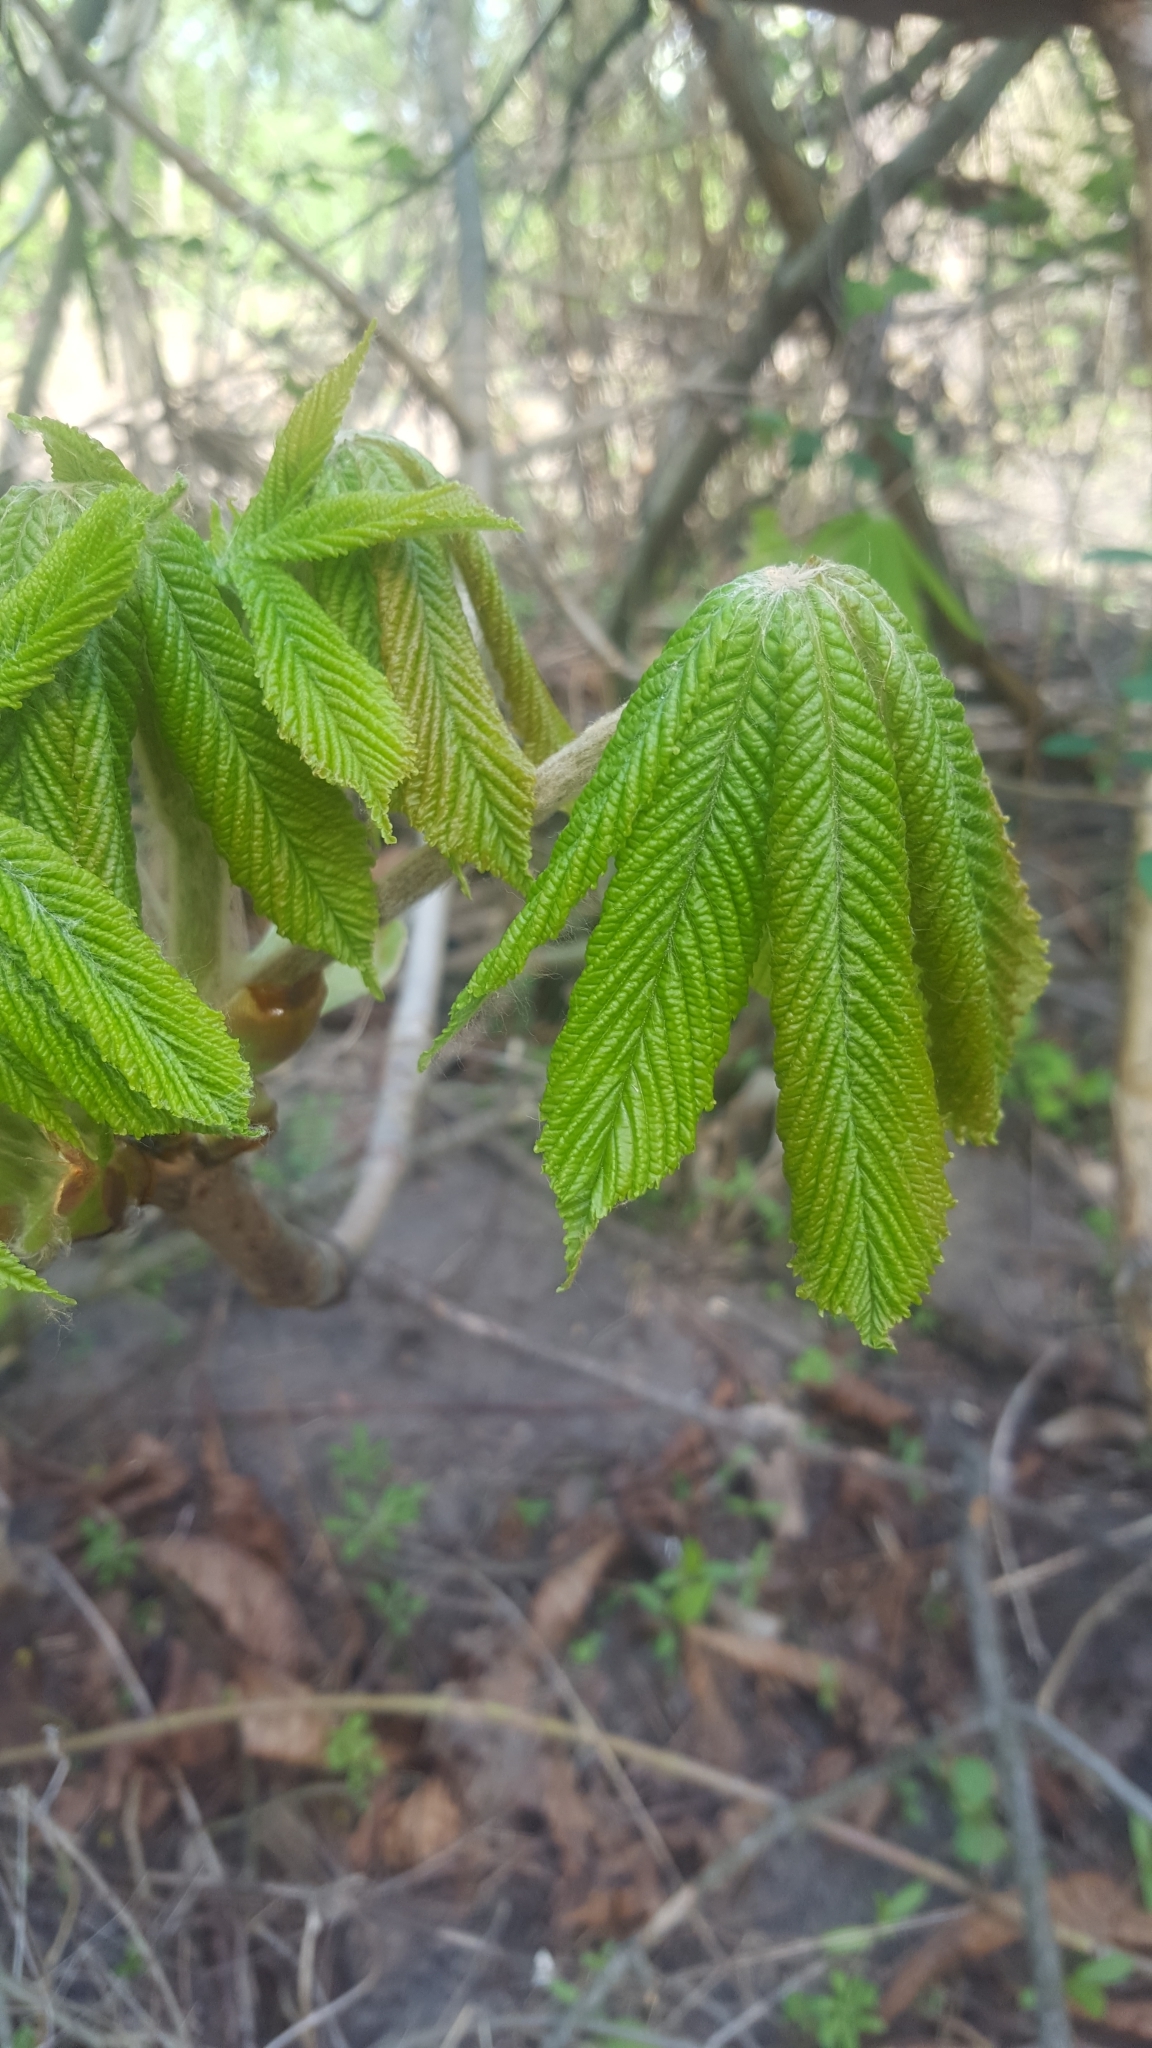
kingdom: Plantae
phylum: Tracheophyta
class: Magnoliopsida
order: Sapindales
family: Sapindaceae
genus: Aesculus
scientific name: Aesculus hippocastanum
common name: Horse-chestnut
